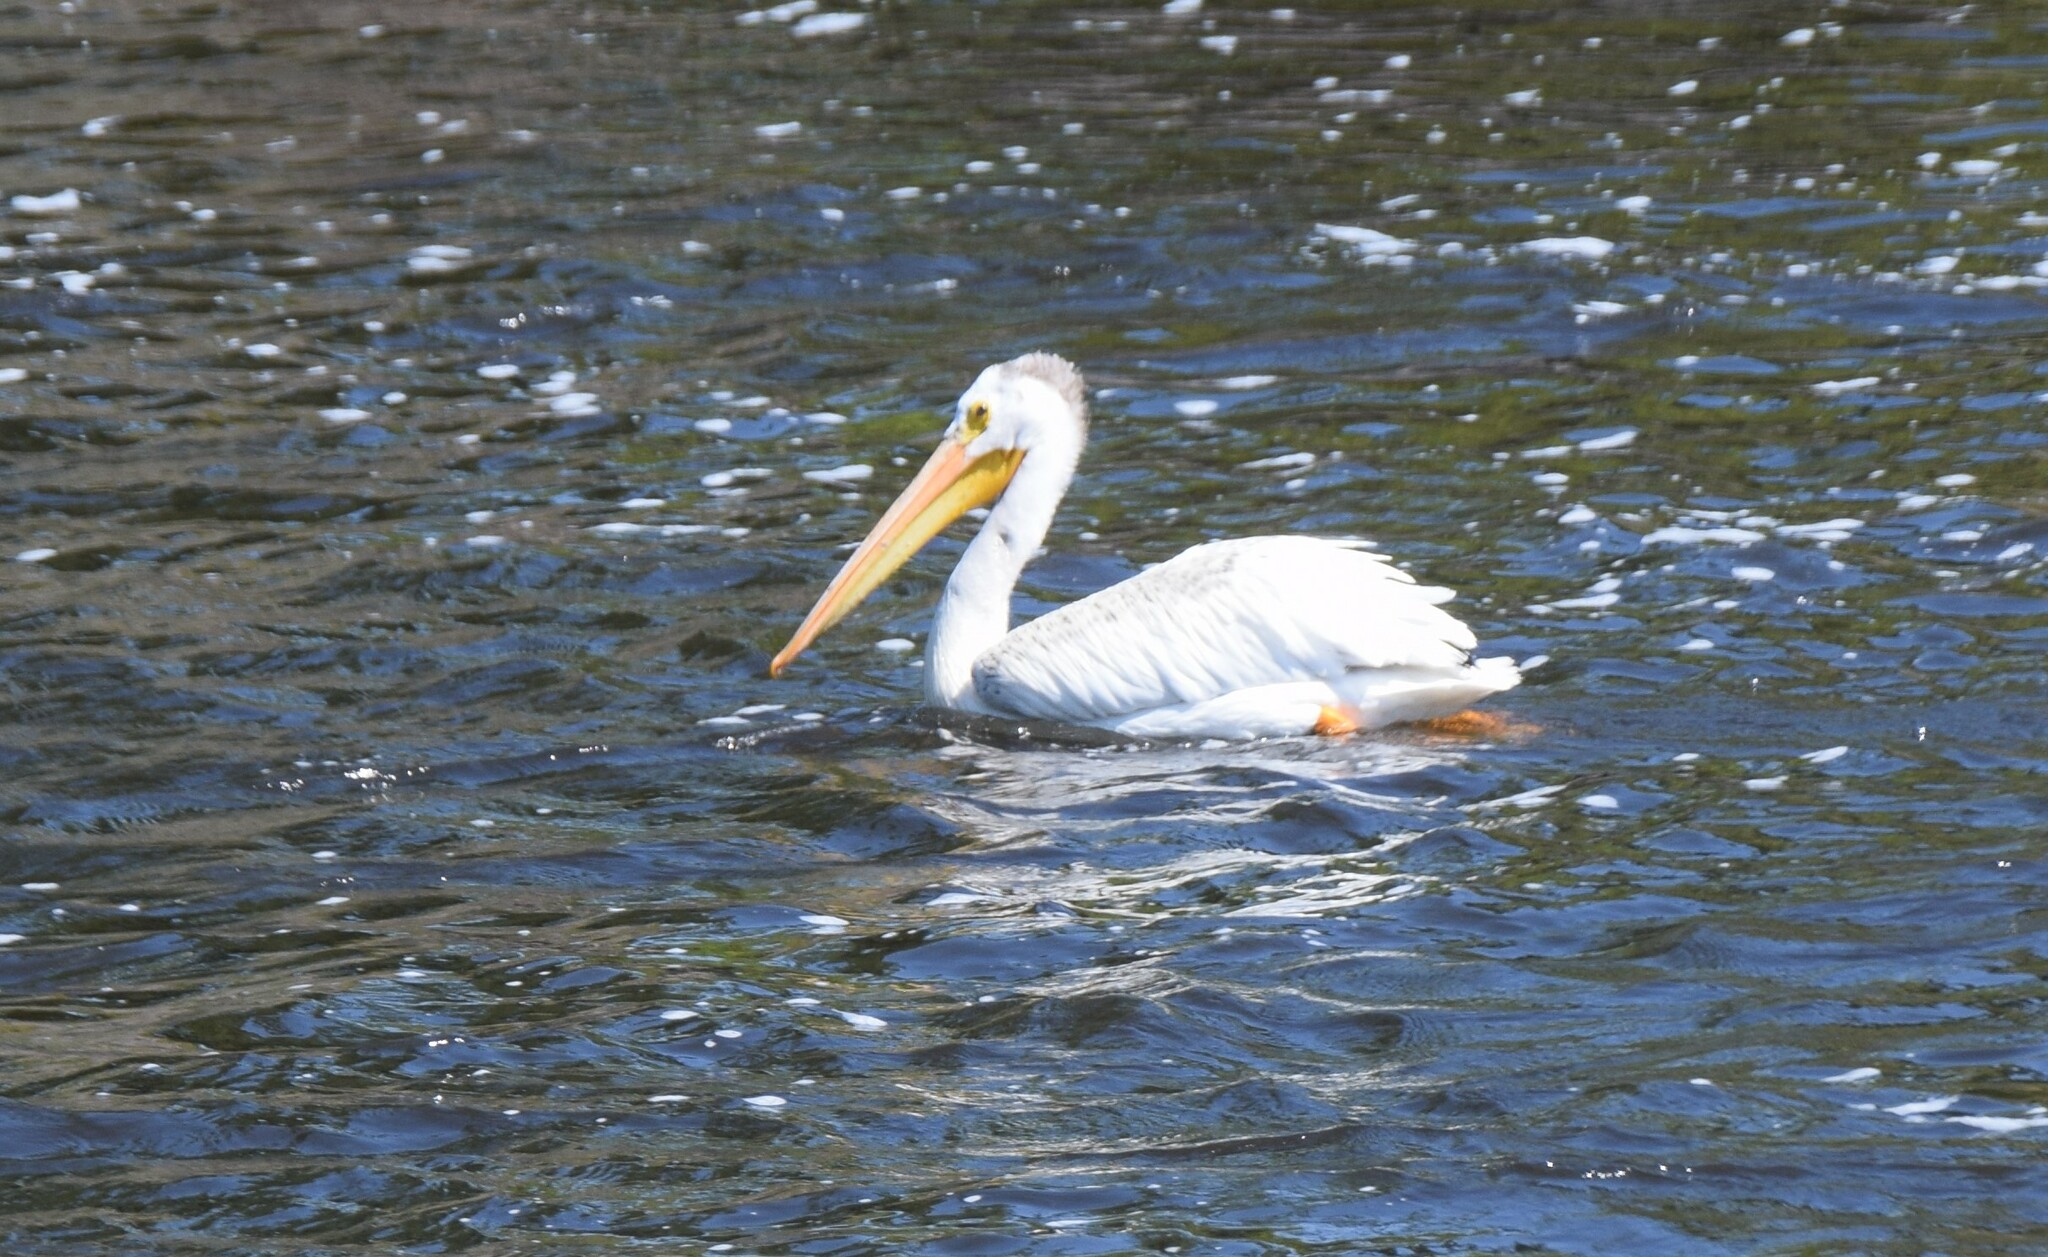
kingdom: Animalia
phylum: Chordata
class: Aves
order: Pelecaniformes
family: Pelecanidae
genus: Pelecanus
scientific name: Pelecanus erythrorhynchos
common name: American white pelican
